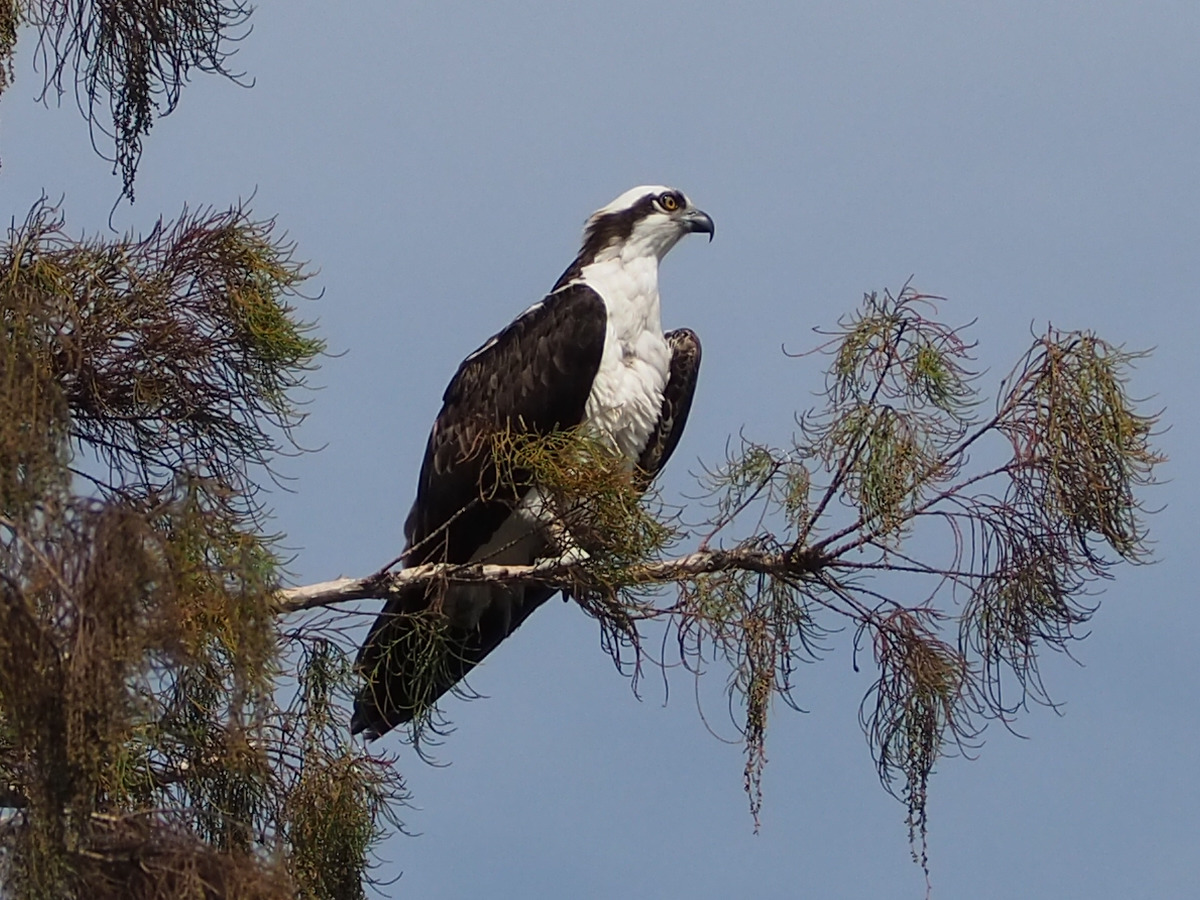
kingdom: Animalia
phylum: Chordata
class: Aves
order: Accipitriformes
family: Pandionidae
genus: Pandion
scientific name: Pandion haliaetus
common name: Osprey
